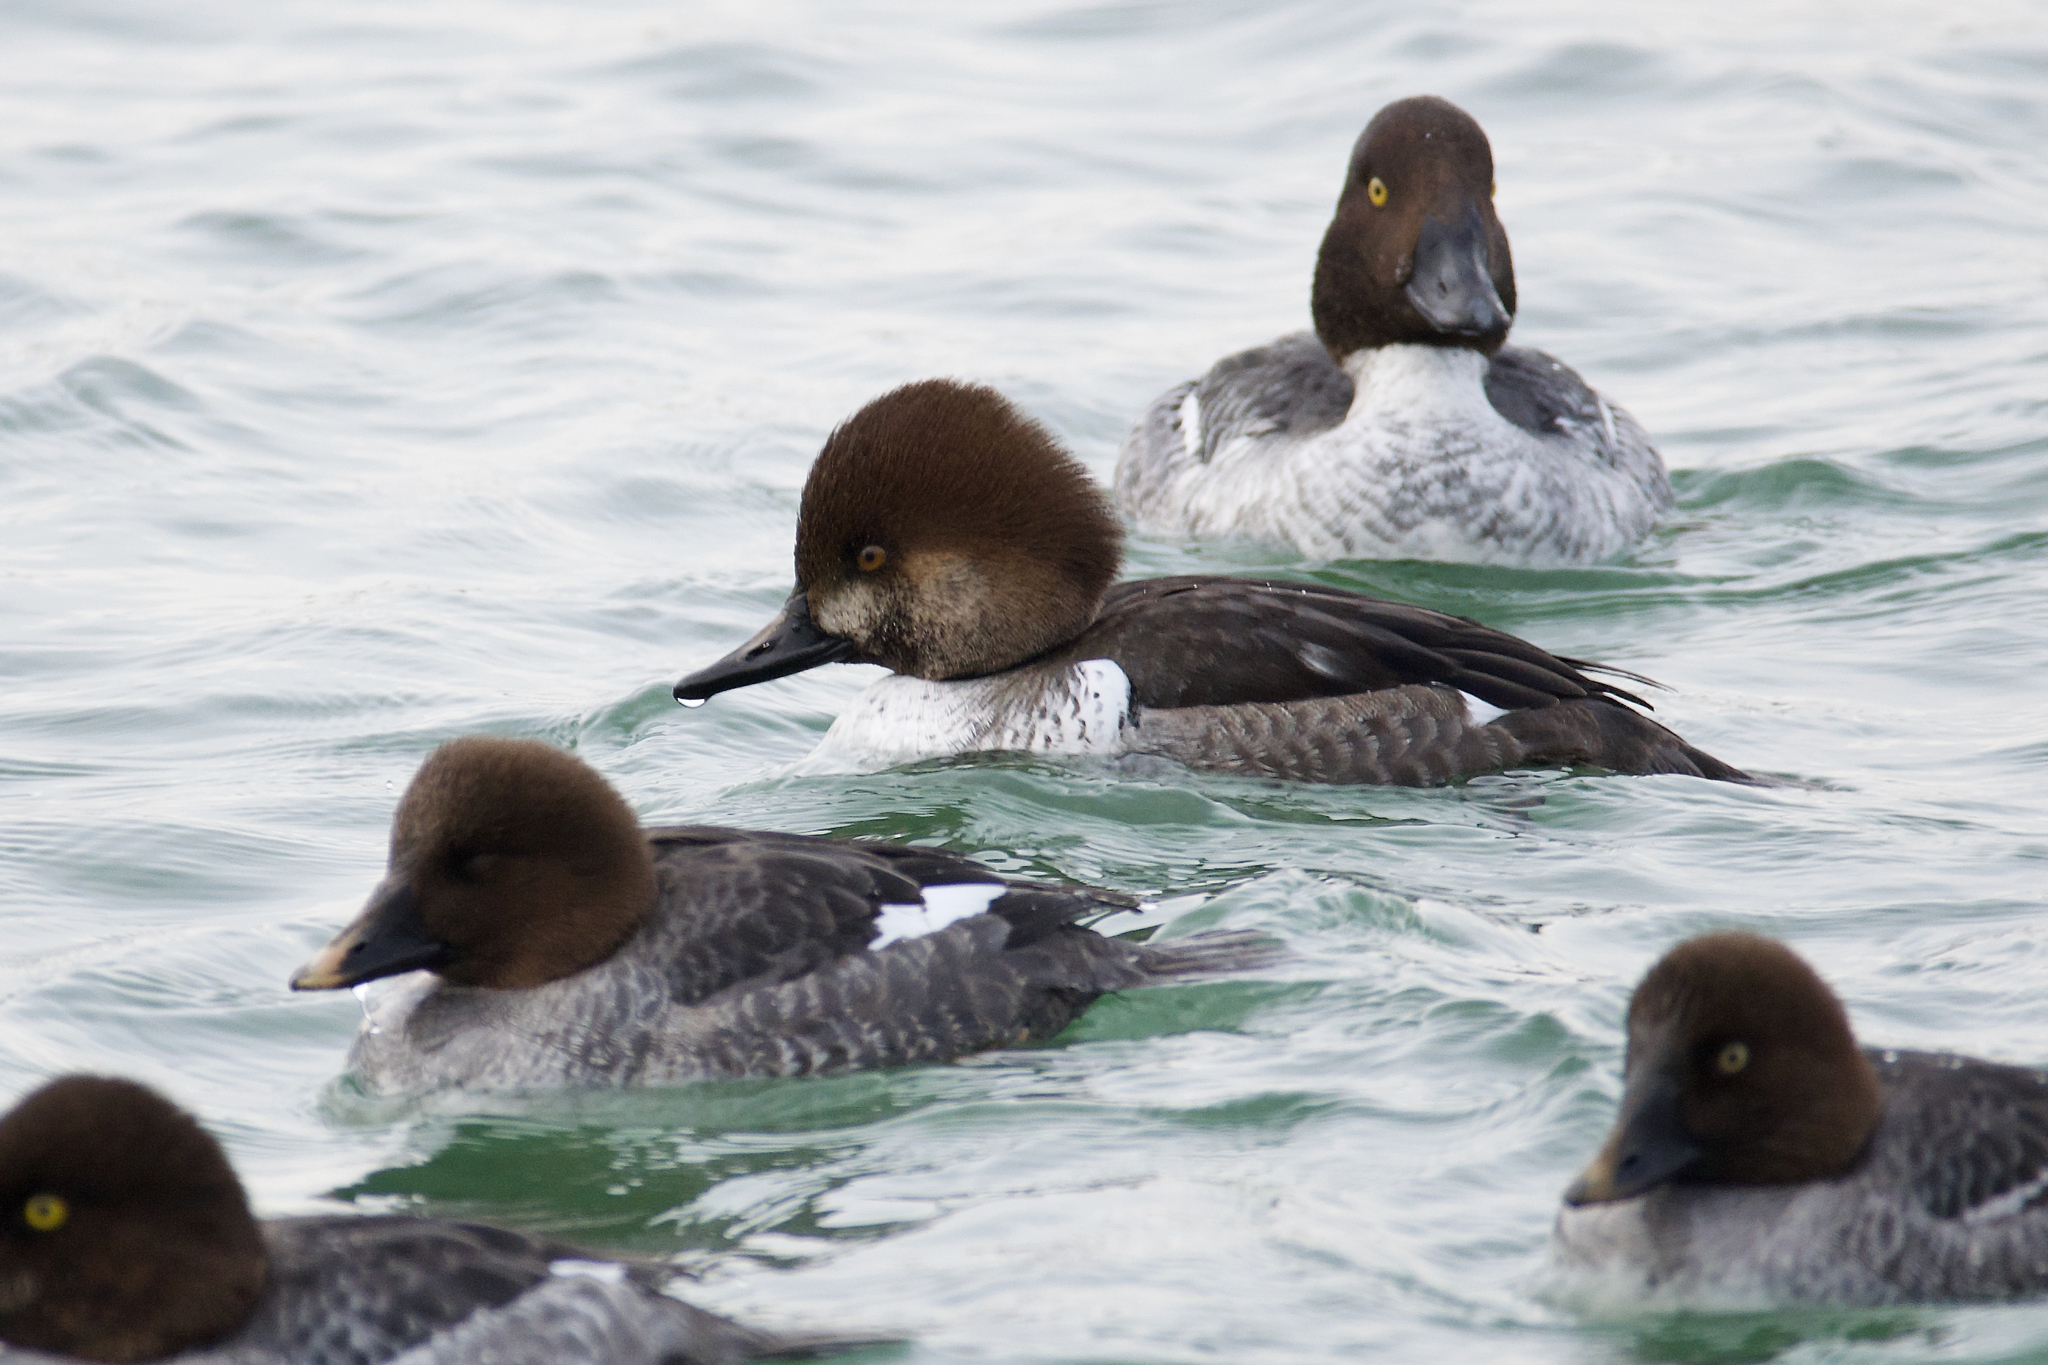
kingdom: Animalia
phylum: Chordata
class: Aves
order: Anseriformes
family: Anatidae
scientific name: Anatidae
